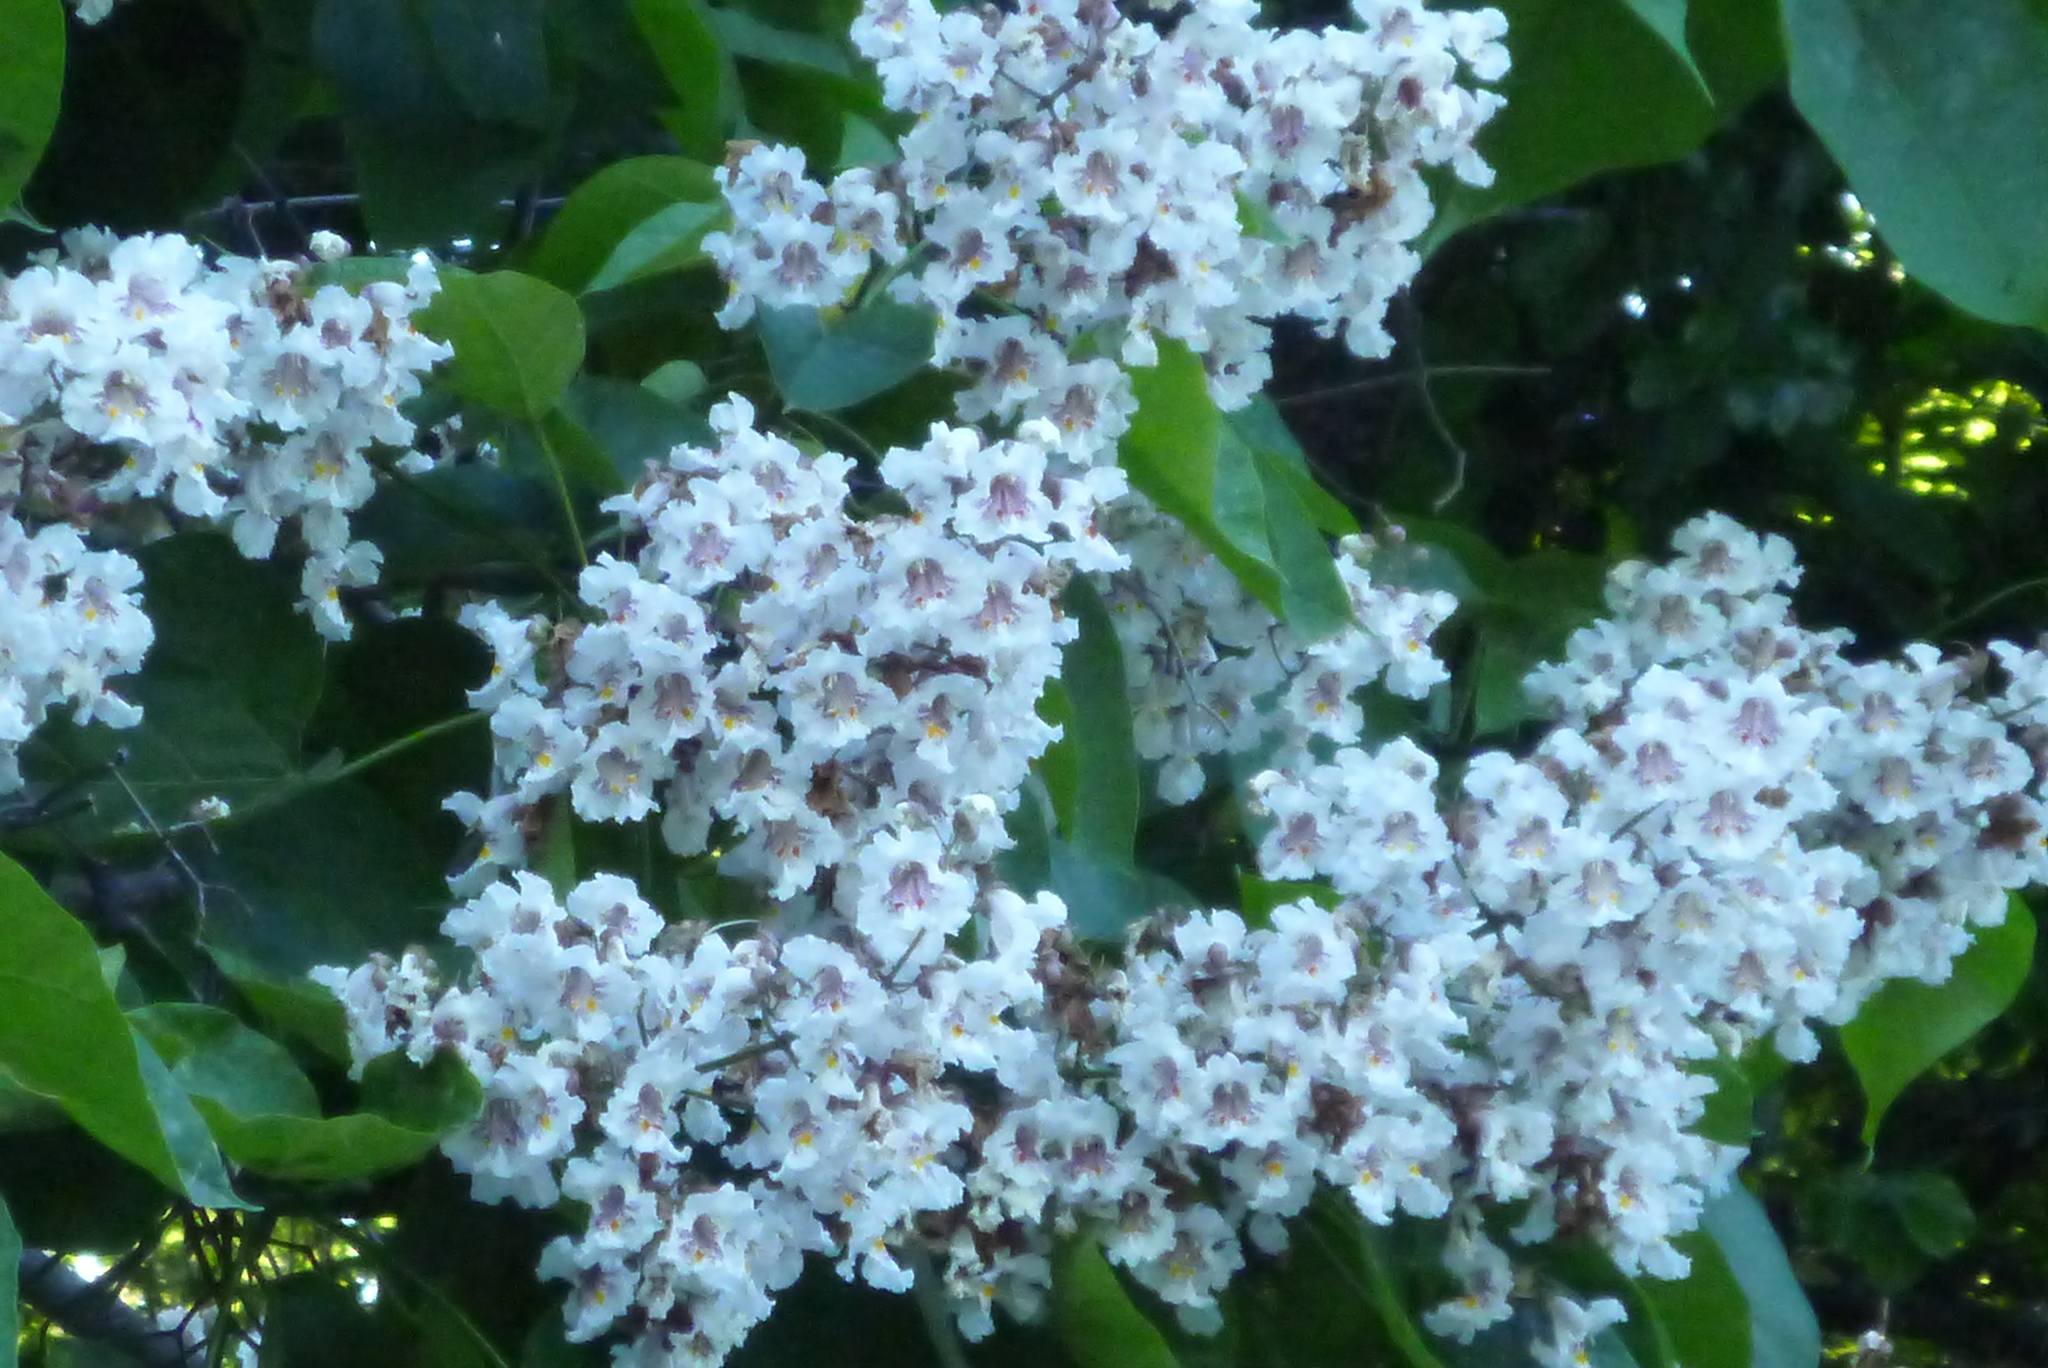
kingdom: Plantae
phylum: Tracheophyta
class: Magnoliopsida
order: Lamiales
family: Bignoniaceae
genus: Catalpa
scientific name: Catalpa speciosa
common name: Northern catalpa
